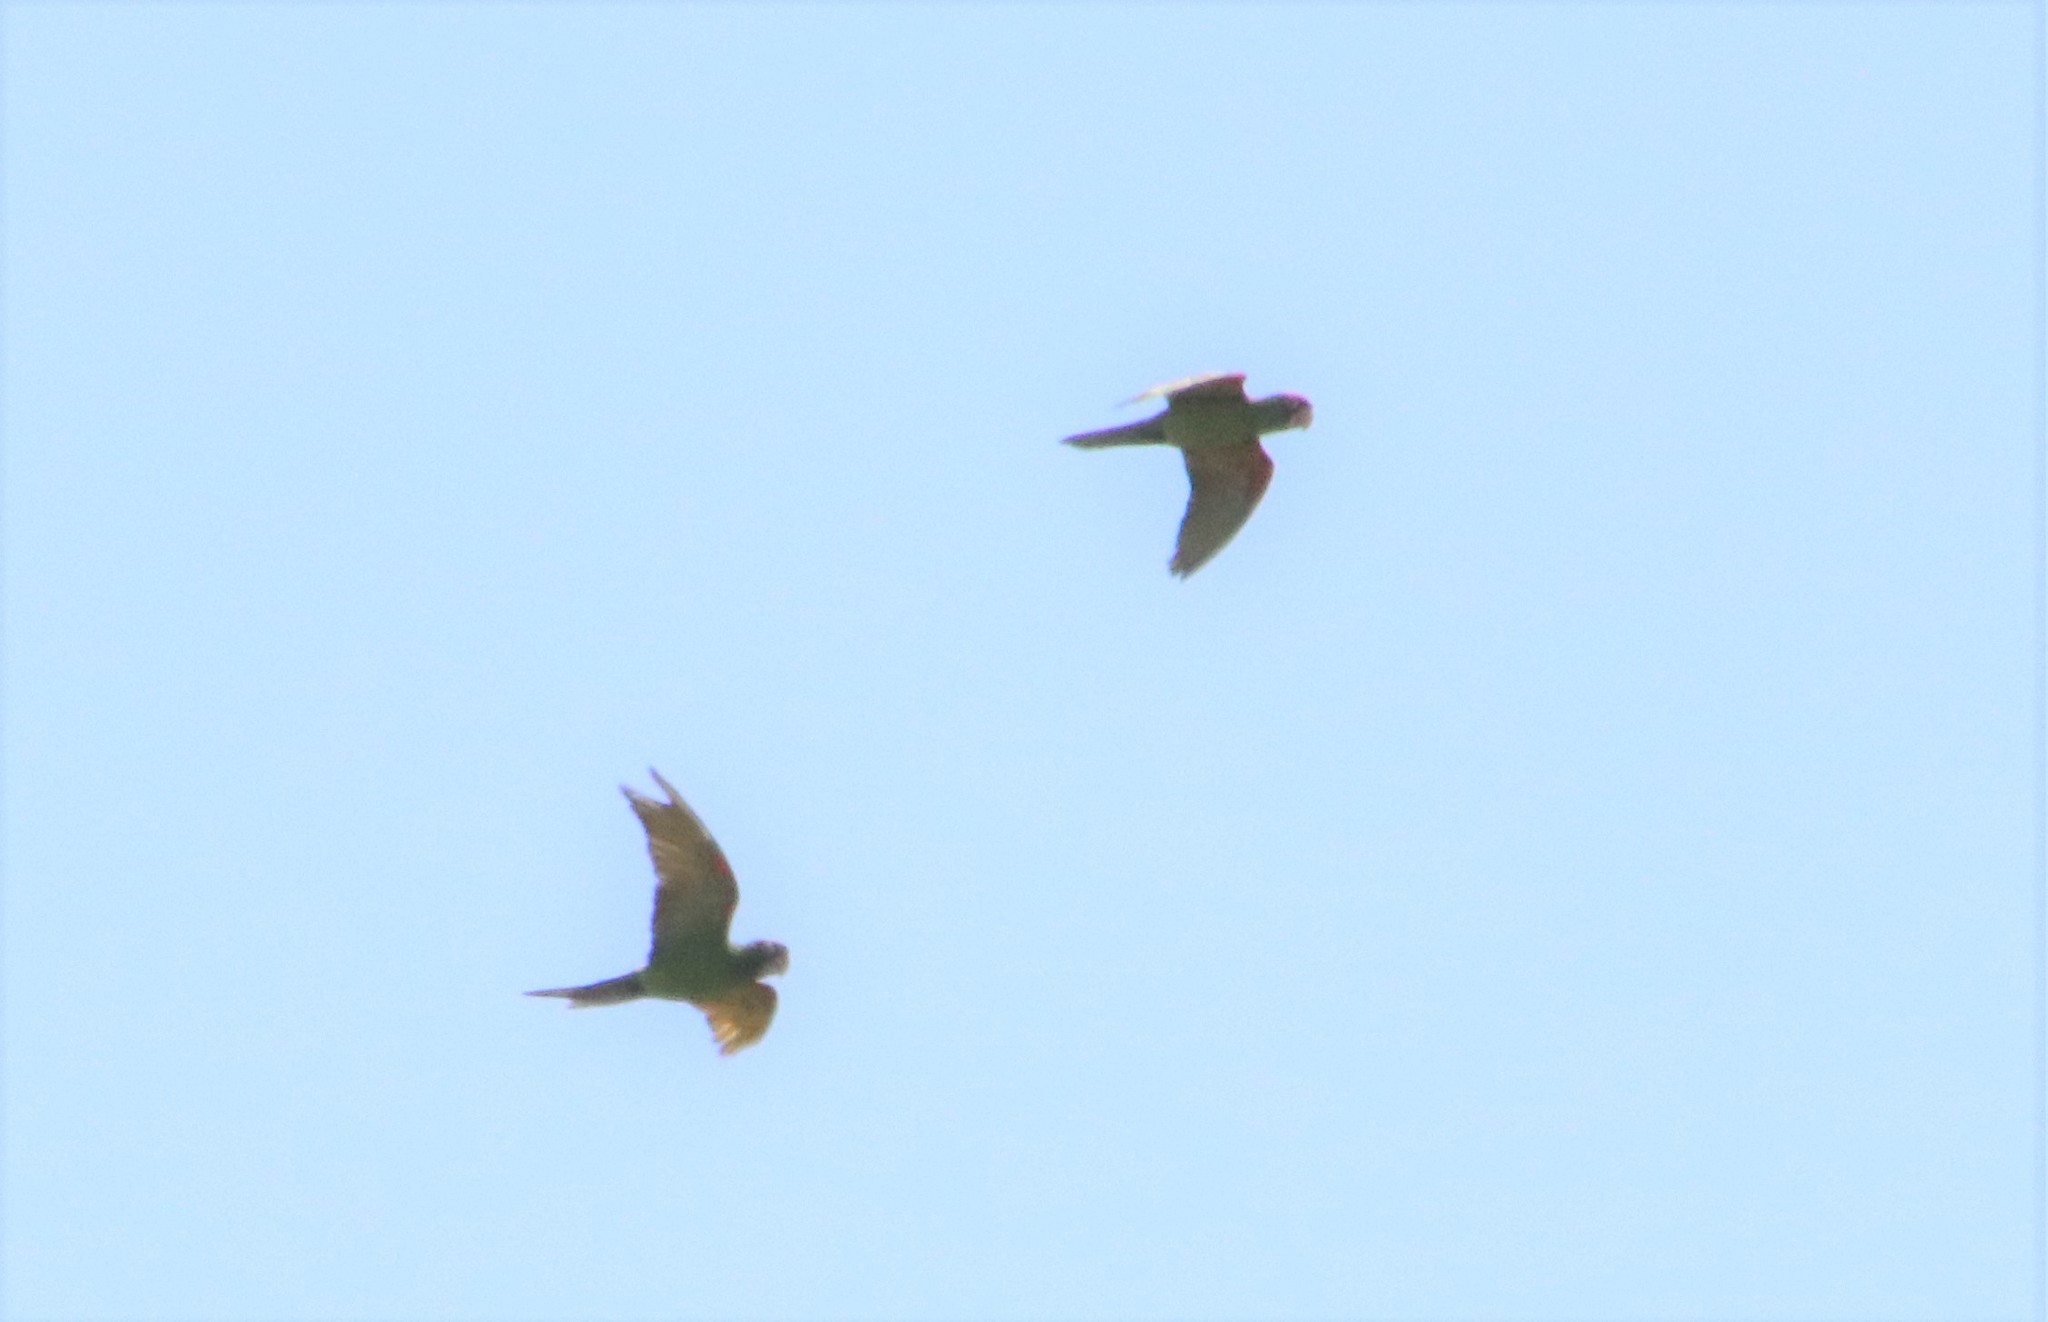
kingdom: Animalia
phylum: Chordata
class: Aves
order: Psittaciformes
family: Psittacidae
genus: Aratinga
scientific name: Aratinga erythrogenys
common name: Red-masked parakeet
